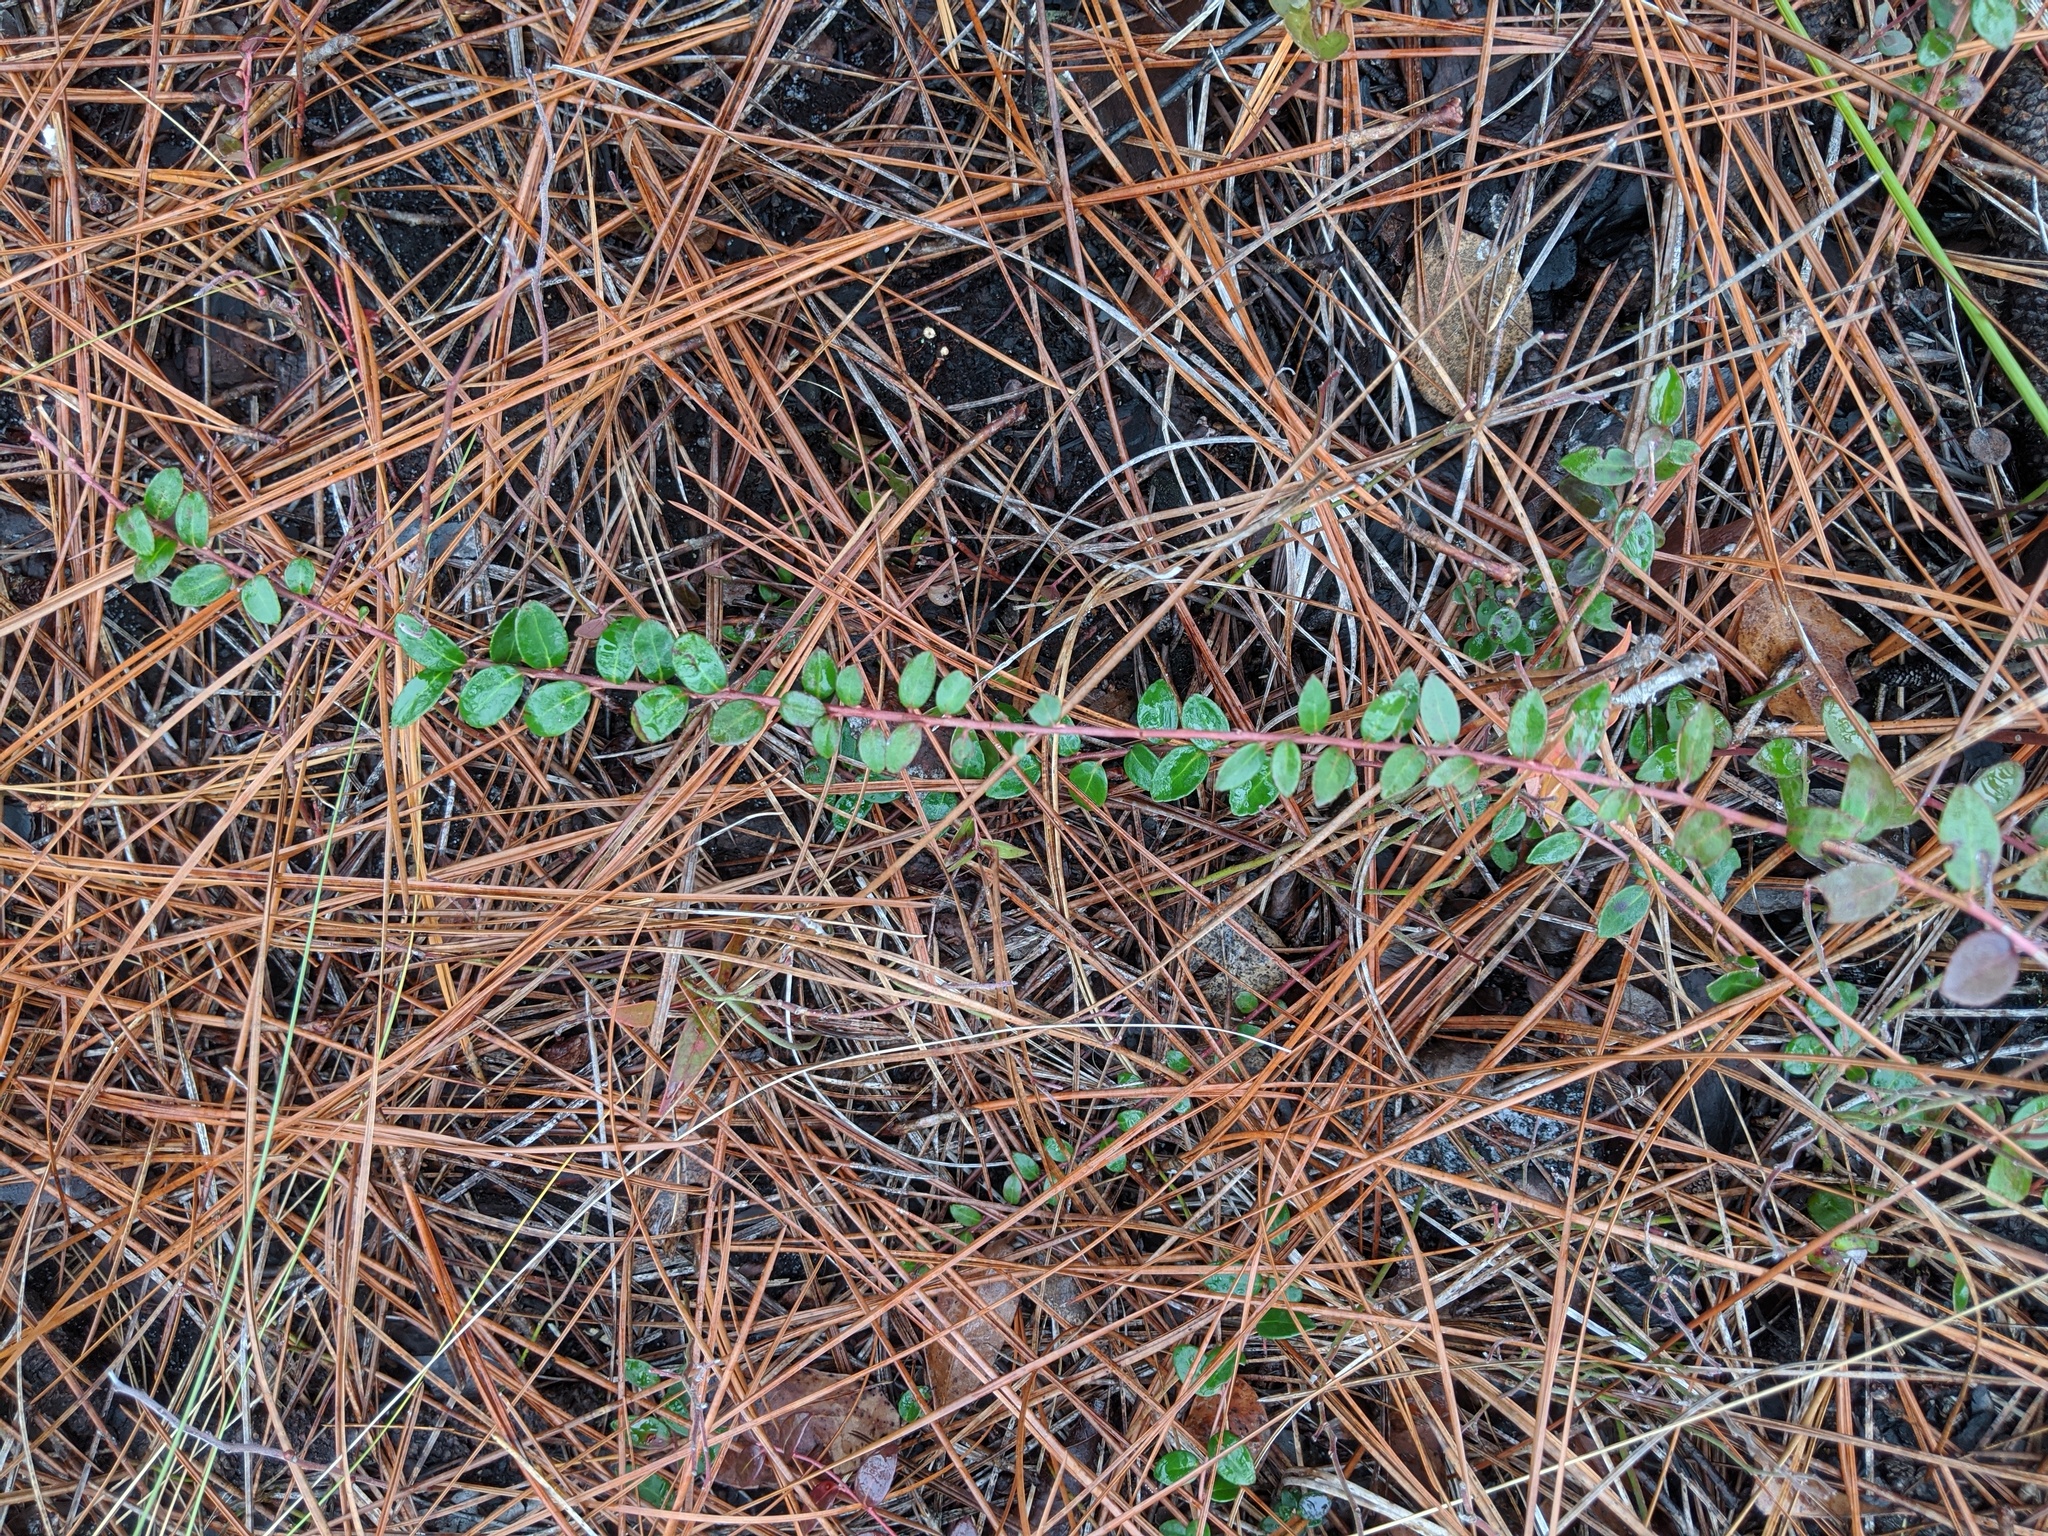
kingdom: Plantae
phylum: Tracheophyta
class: Magnoliopsida
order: Ericales
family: Ericaceae
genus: Vaccinium
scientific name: Vaccinium crassifolium
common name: Creeping blueberry
